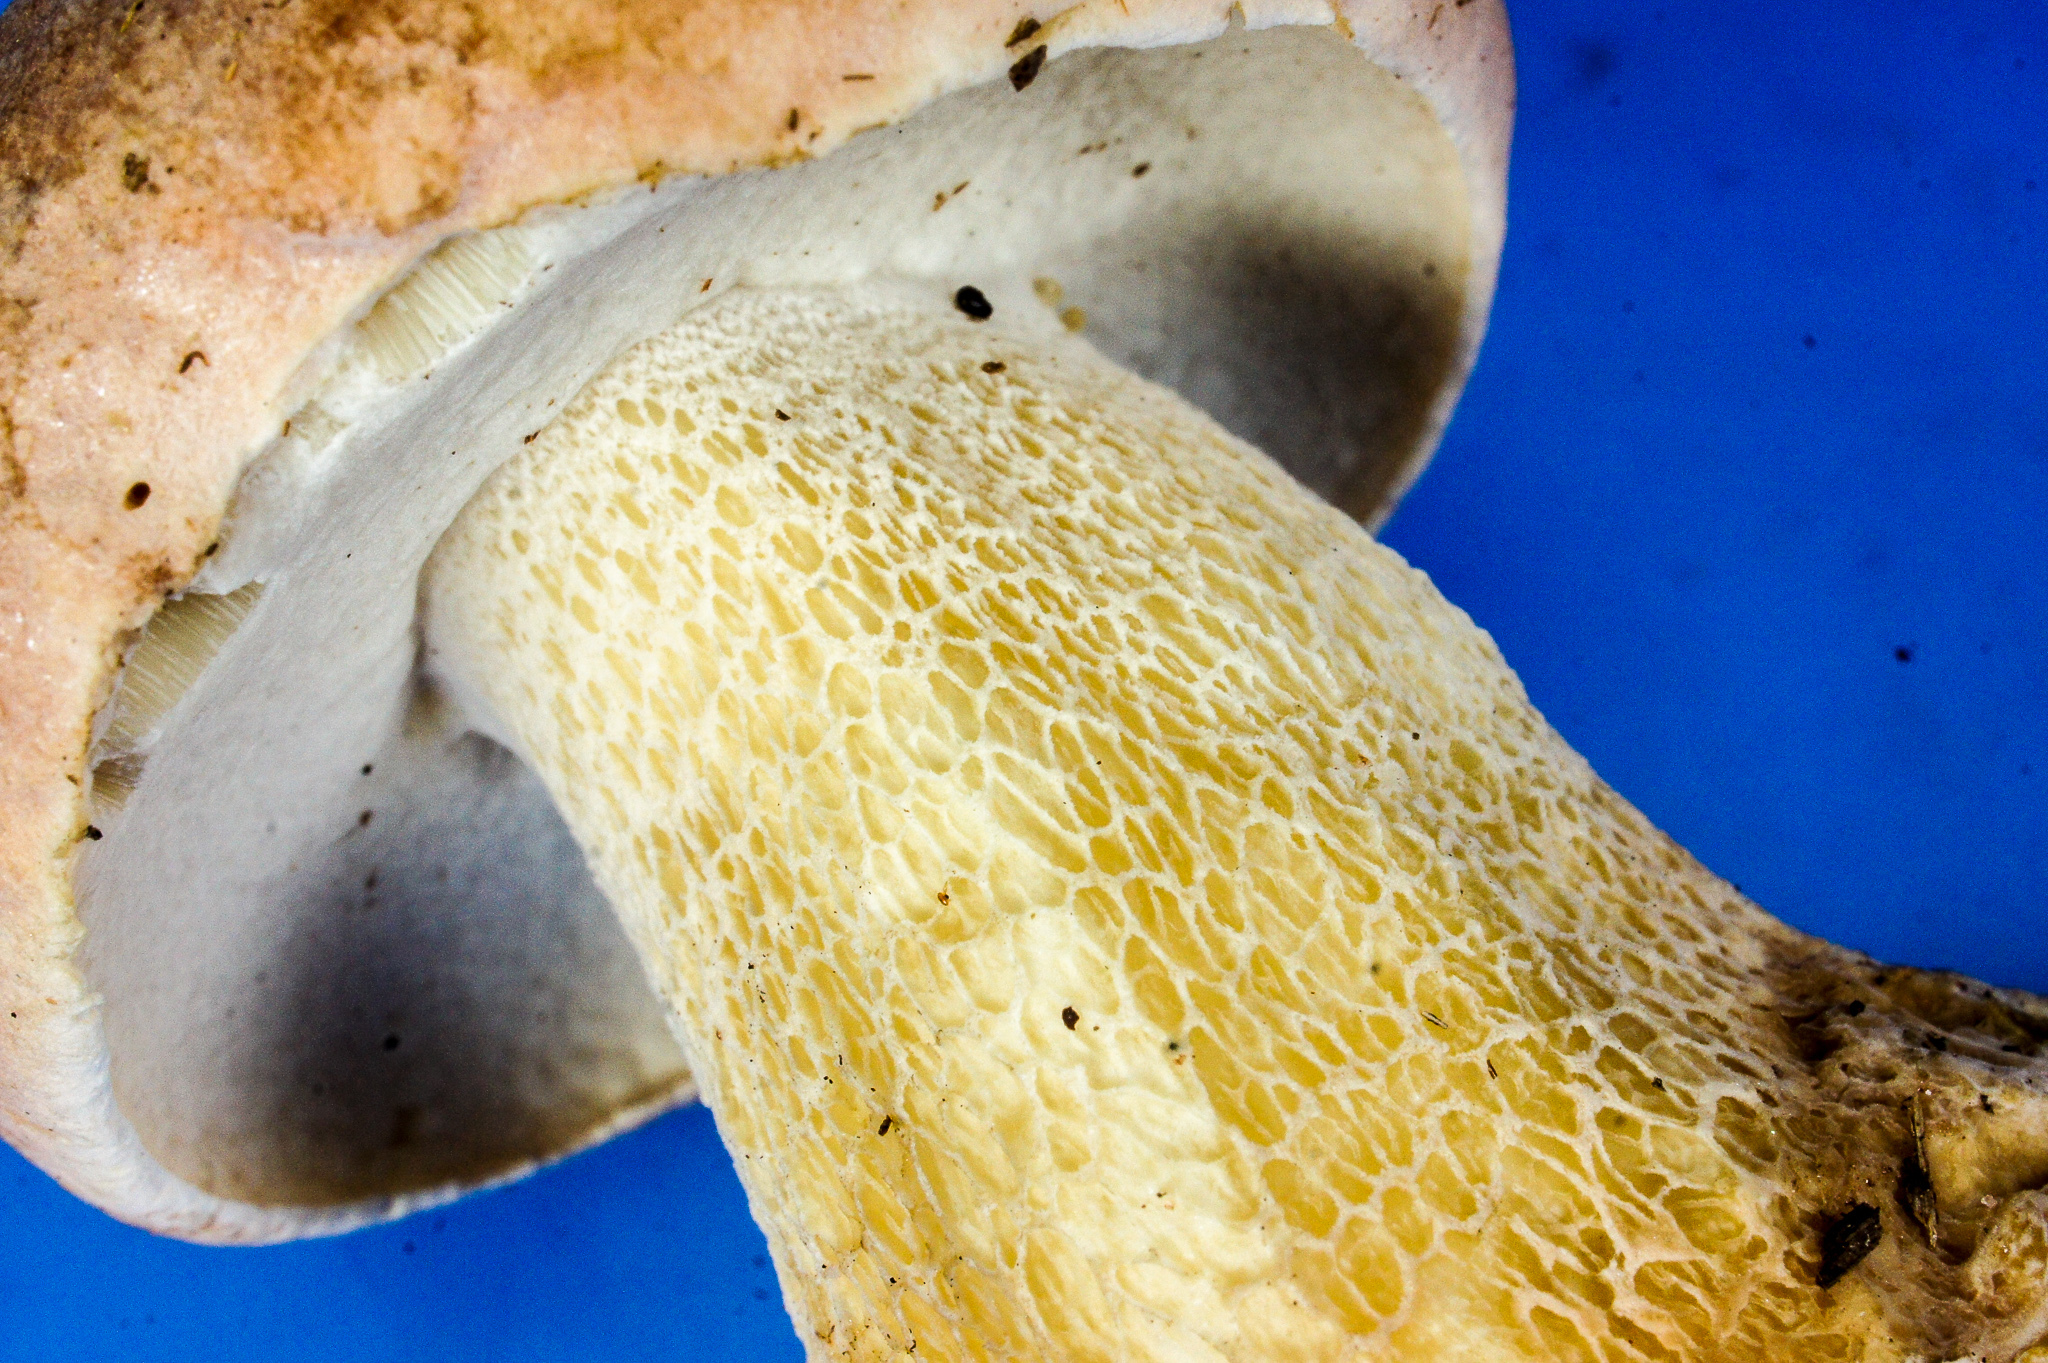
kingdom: Fungi
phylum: Basidiomycota
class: Agaricomycetes
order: Boletales
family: Boletaceae
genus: Boletus
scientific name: Boletus pseudopinophilus
